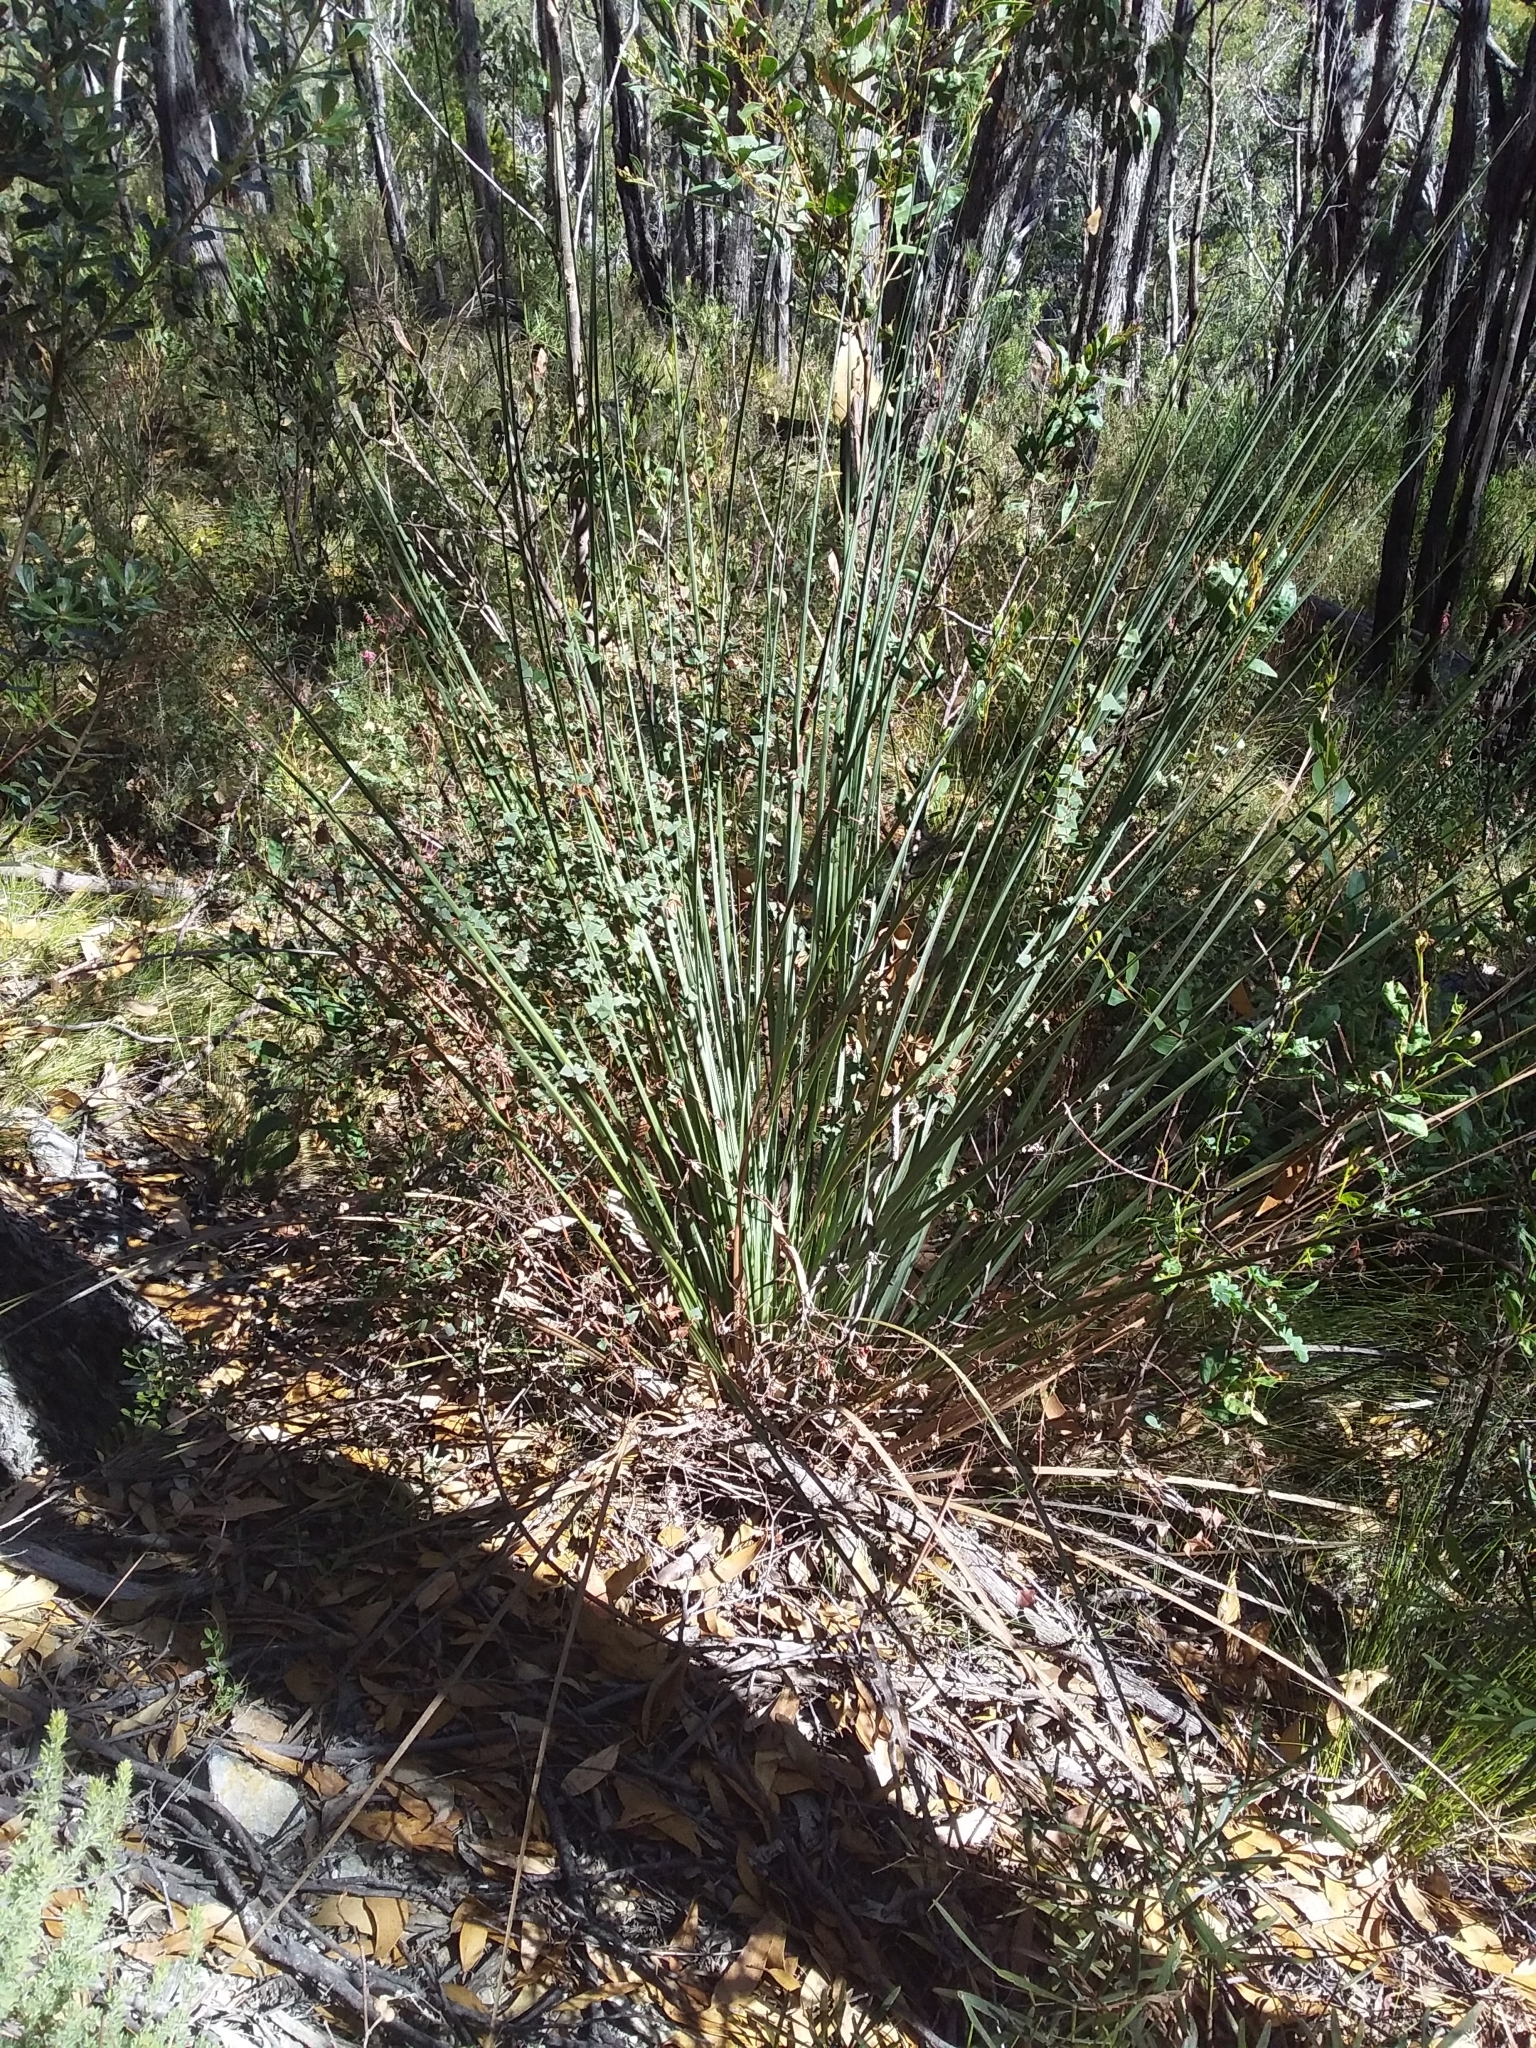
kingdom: Plantae
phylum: Tracheophyta
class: Liliopsida
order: Asparagales
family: Asphodelaceae
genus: Xanthorrhoea
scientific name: Xanthorrhoea semiplana
